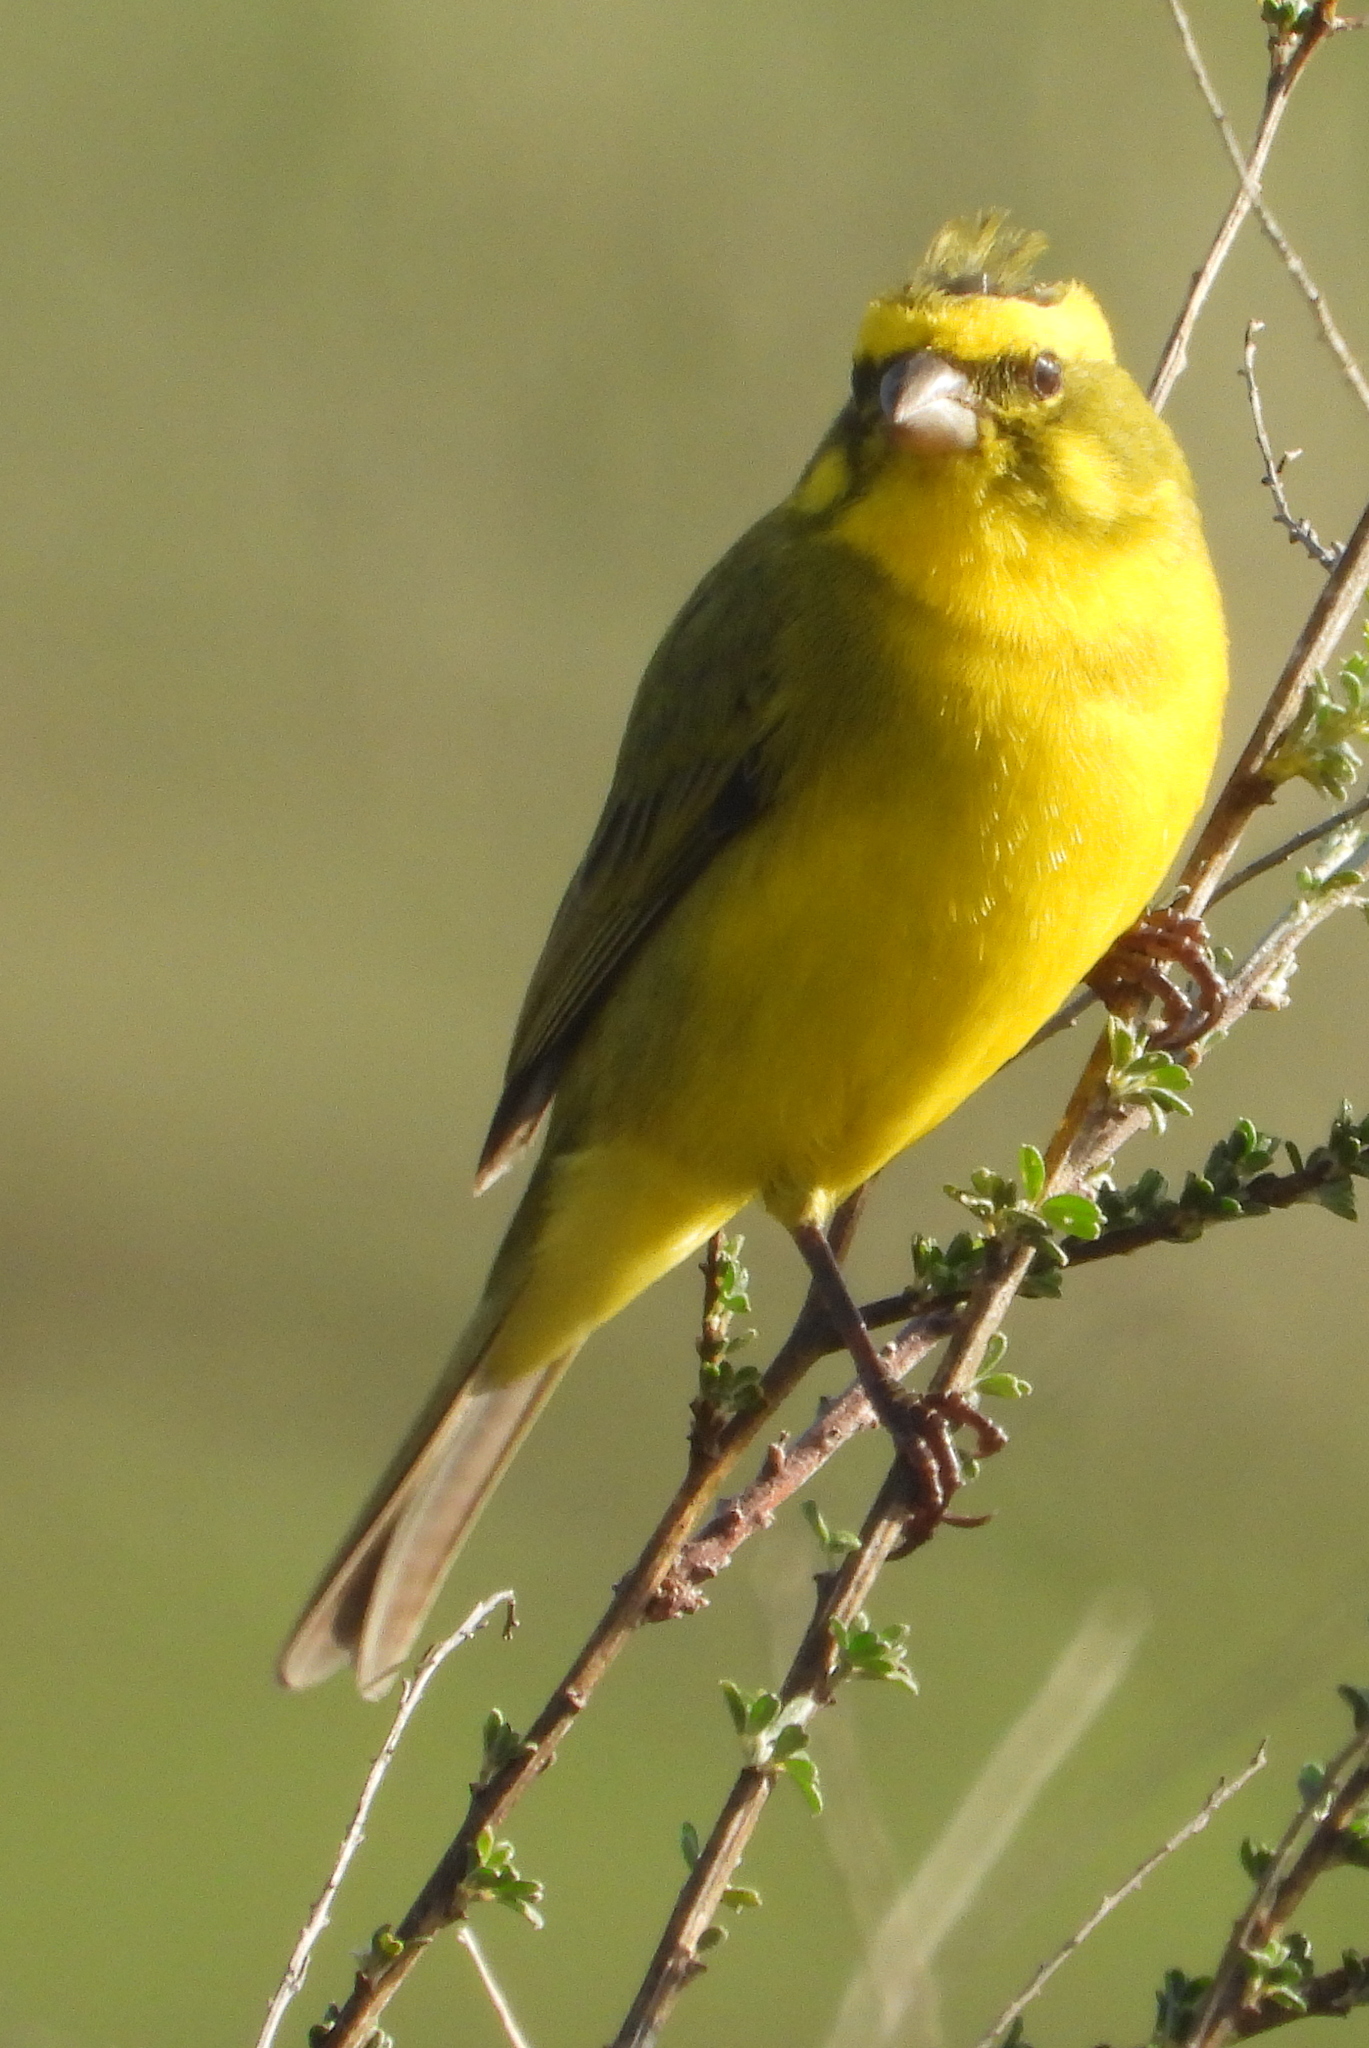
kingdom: Animalia
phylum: Chordata
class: Aves
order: Passeriformes
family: Fringillidae
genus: Crithagra
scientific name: Crithagra flaviventris
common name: Yellow canary
